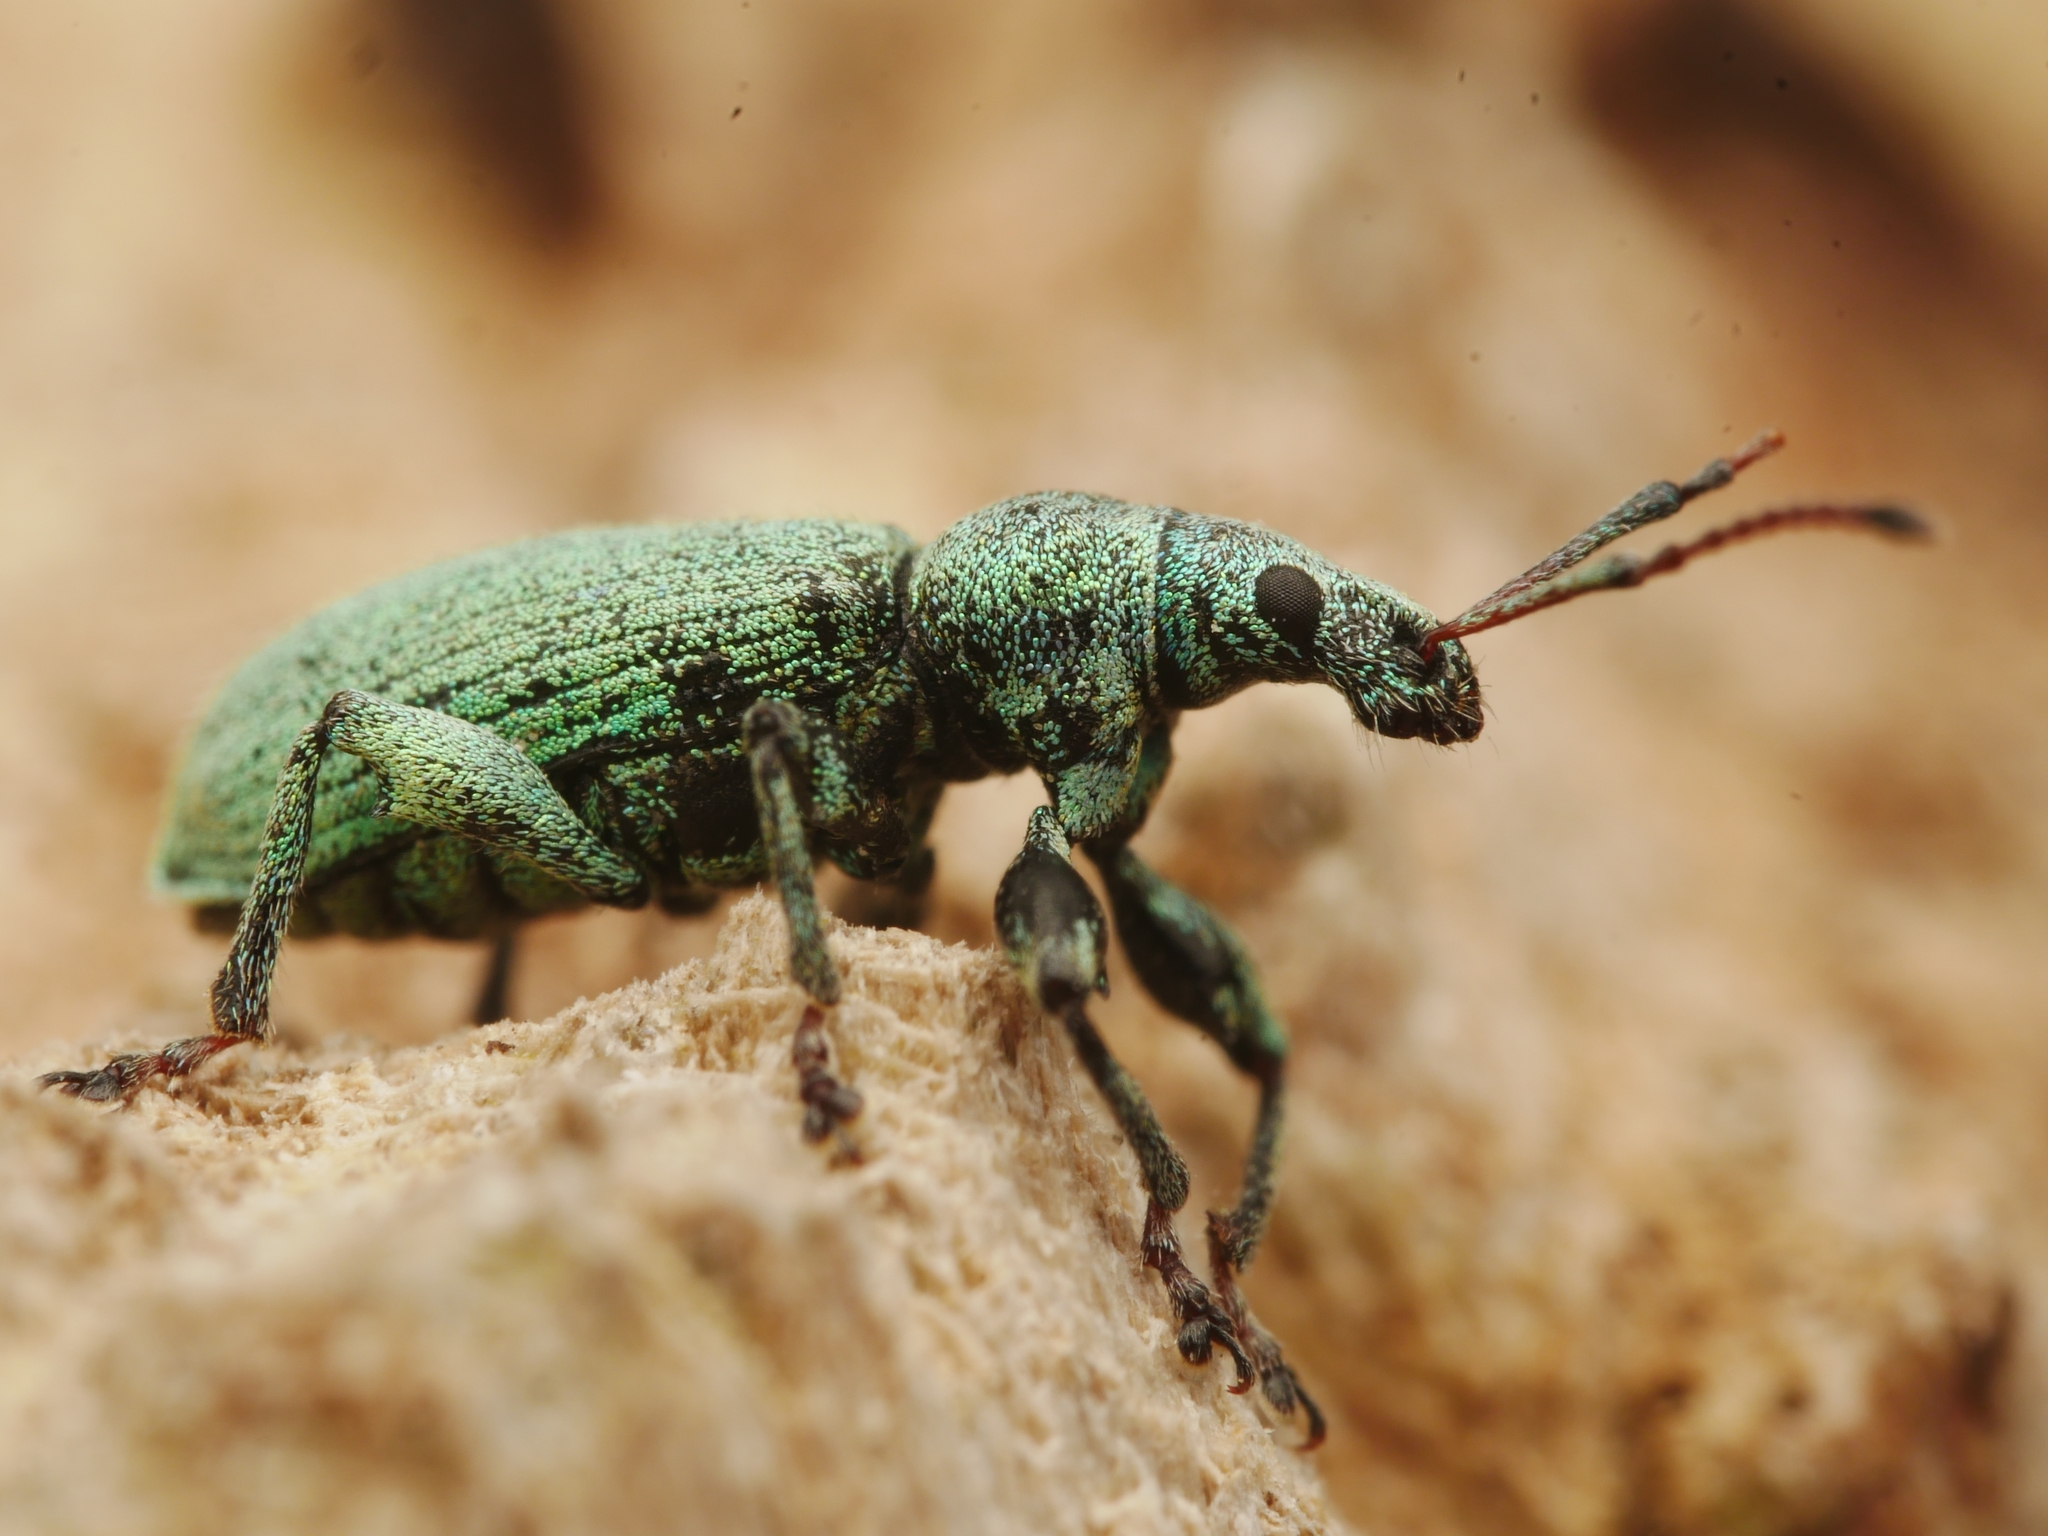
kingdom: Animalia
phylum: Arthropoda
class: Insecta
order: Coleoptera
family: Curculionidae
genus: Phyllobius
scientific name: Phyllobius maculicornis
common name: Green leaf weevil
